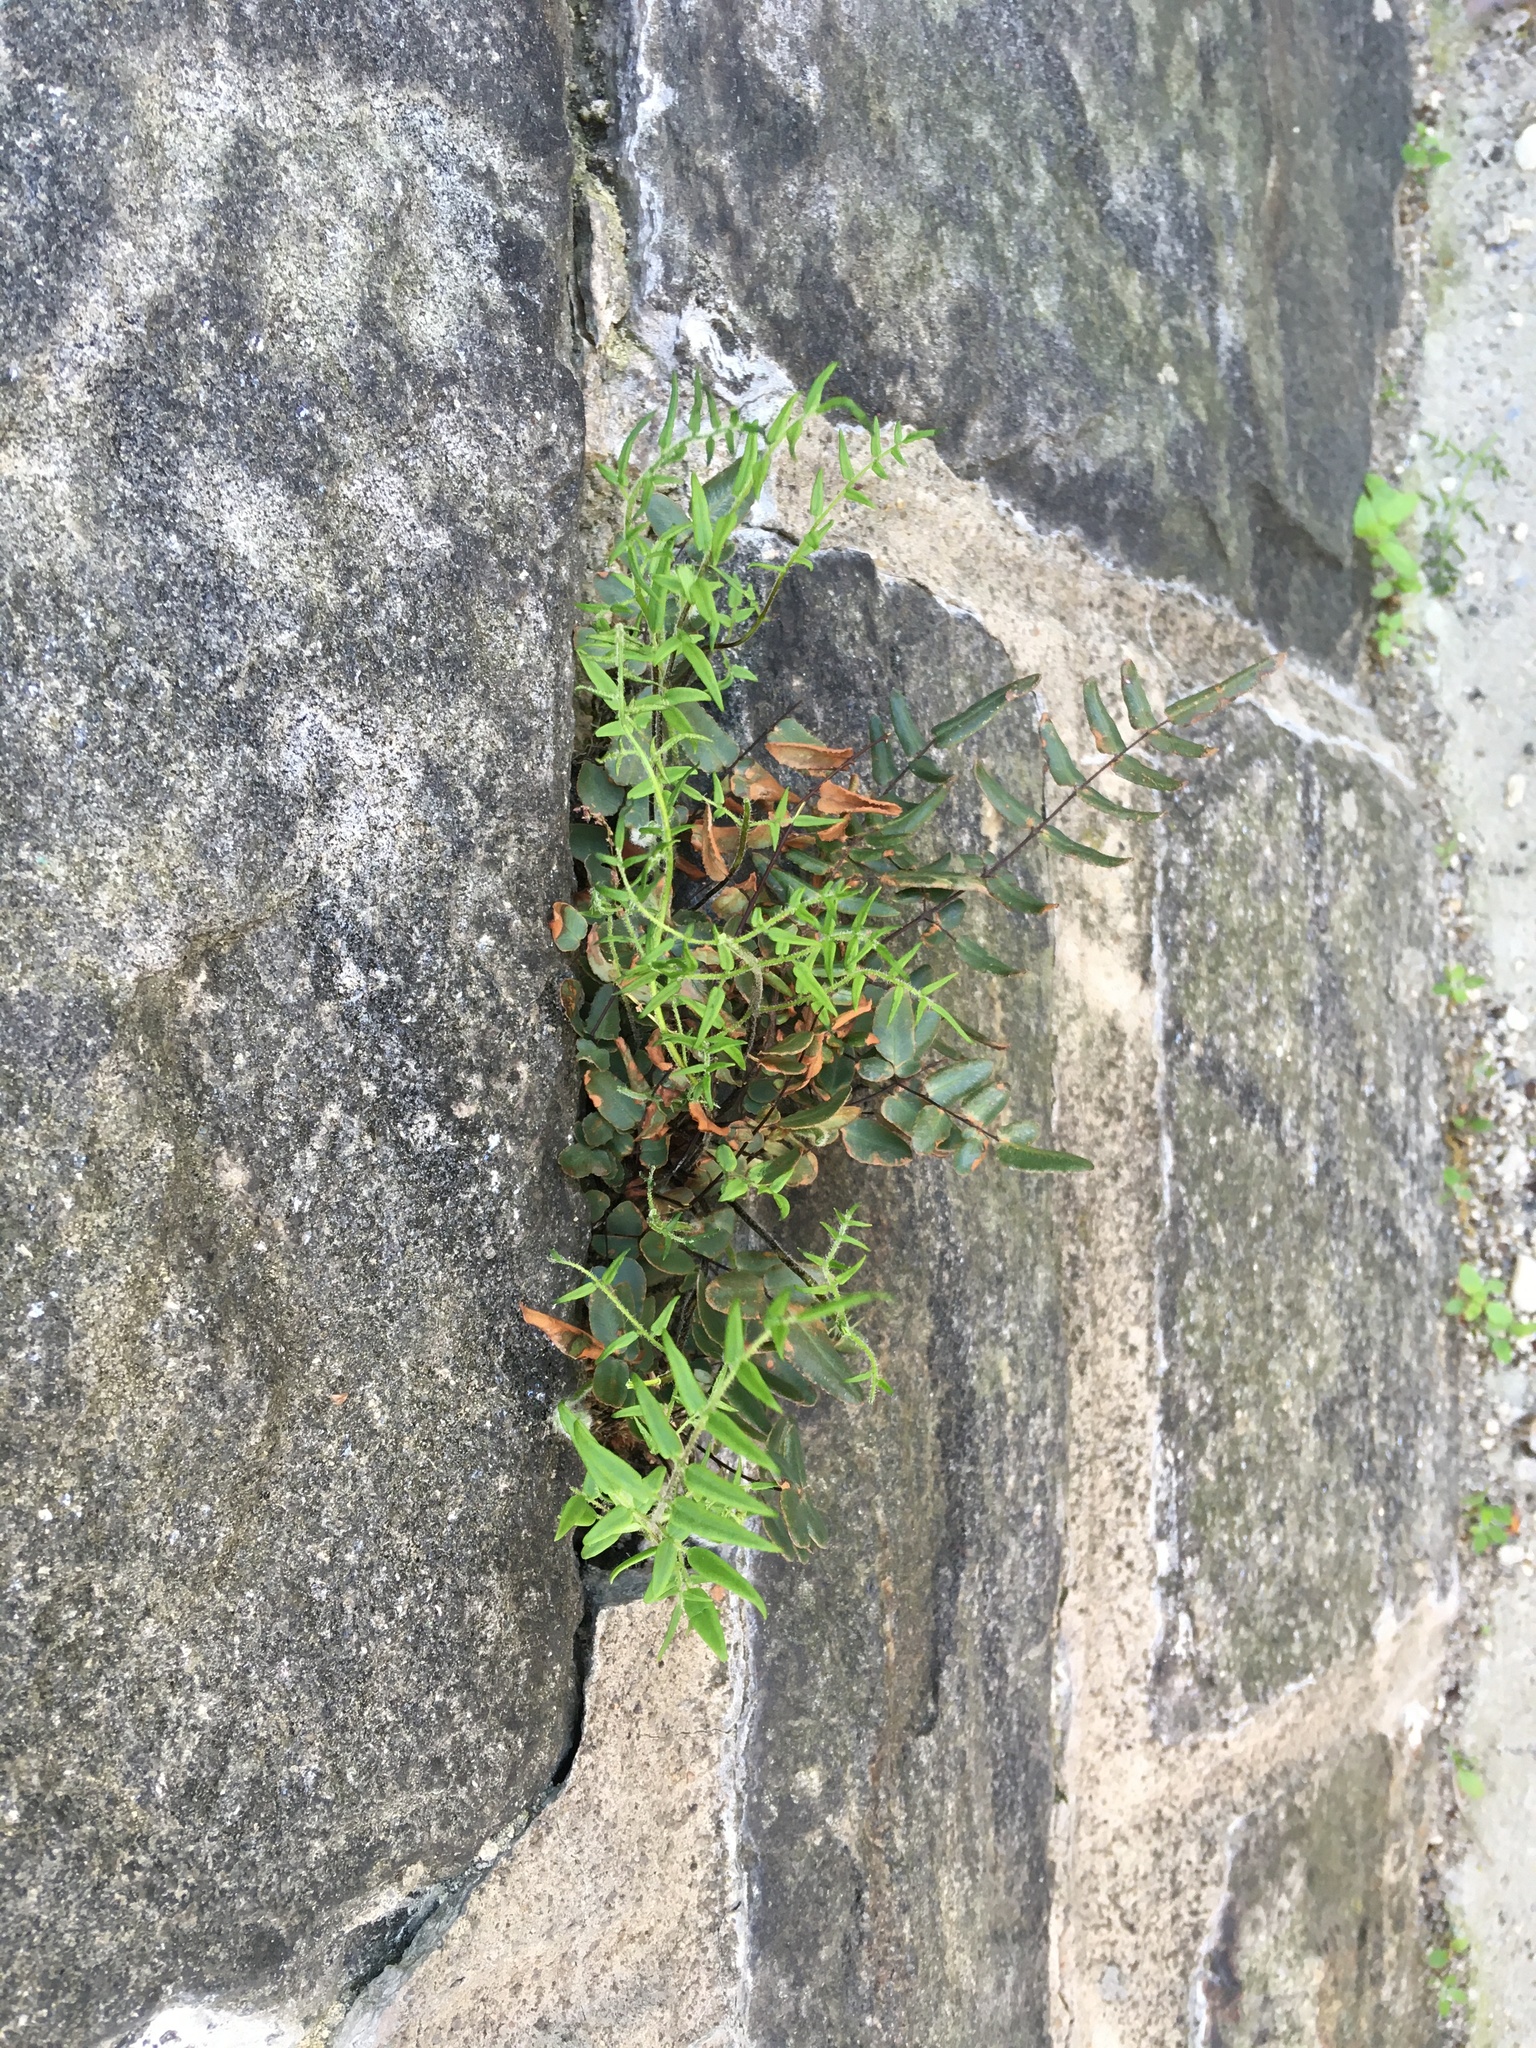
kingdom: Plantae
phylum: Tracheophyta
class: Polypodiopsida
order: Polypodiales
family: Pteridaceae
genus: Pellaea
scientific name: Pellaea atropurpurea
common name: Hairy cliffbrake
